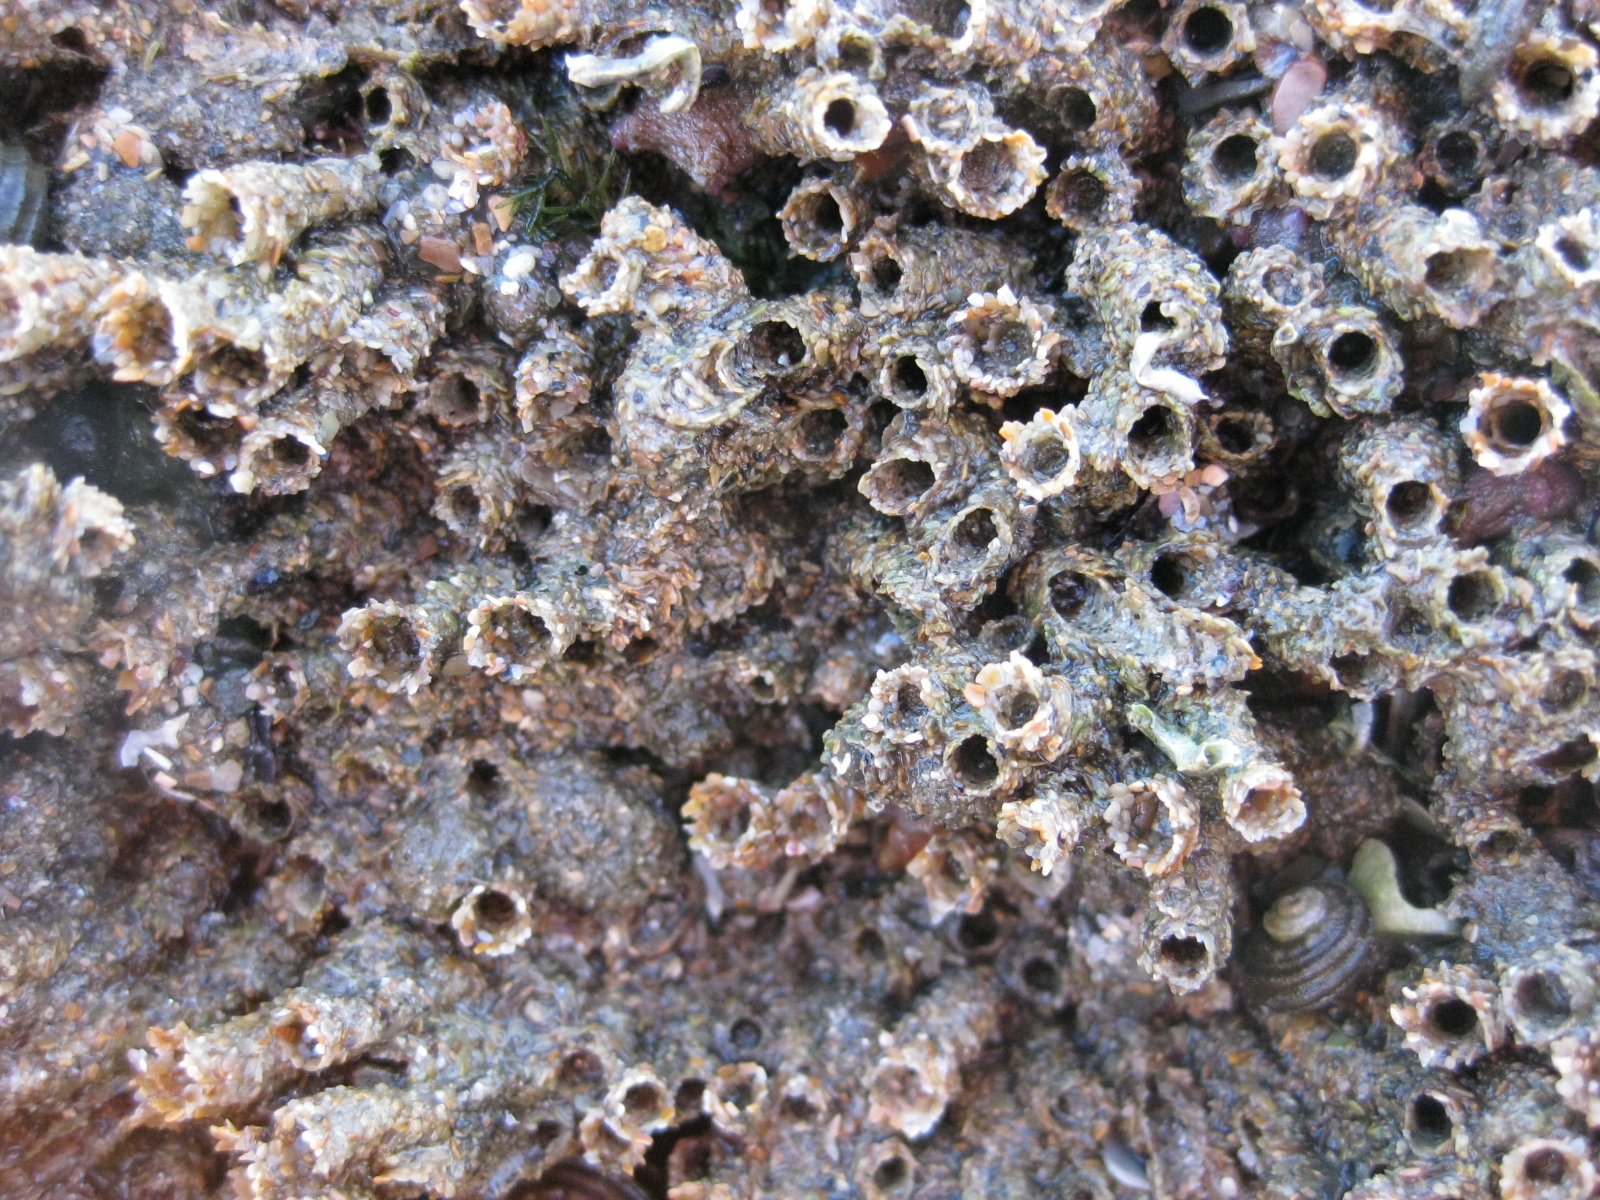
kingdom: Animalia
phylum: Annelida
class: Polychaeta
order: Sabellida
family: Sabellariidae
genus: Neosabellaria
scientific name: Neosabellaria kaiparaensis
